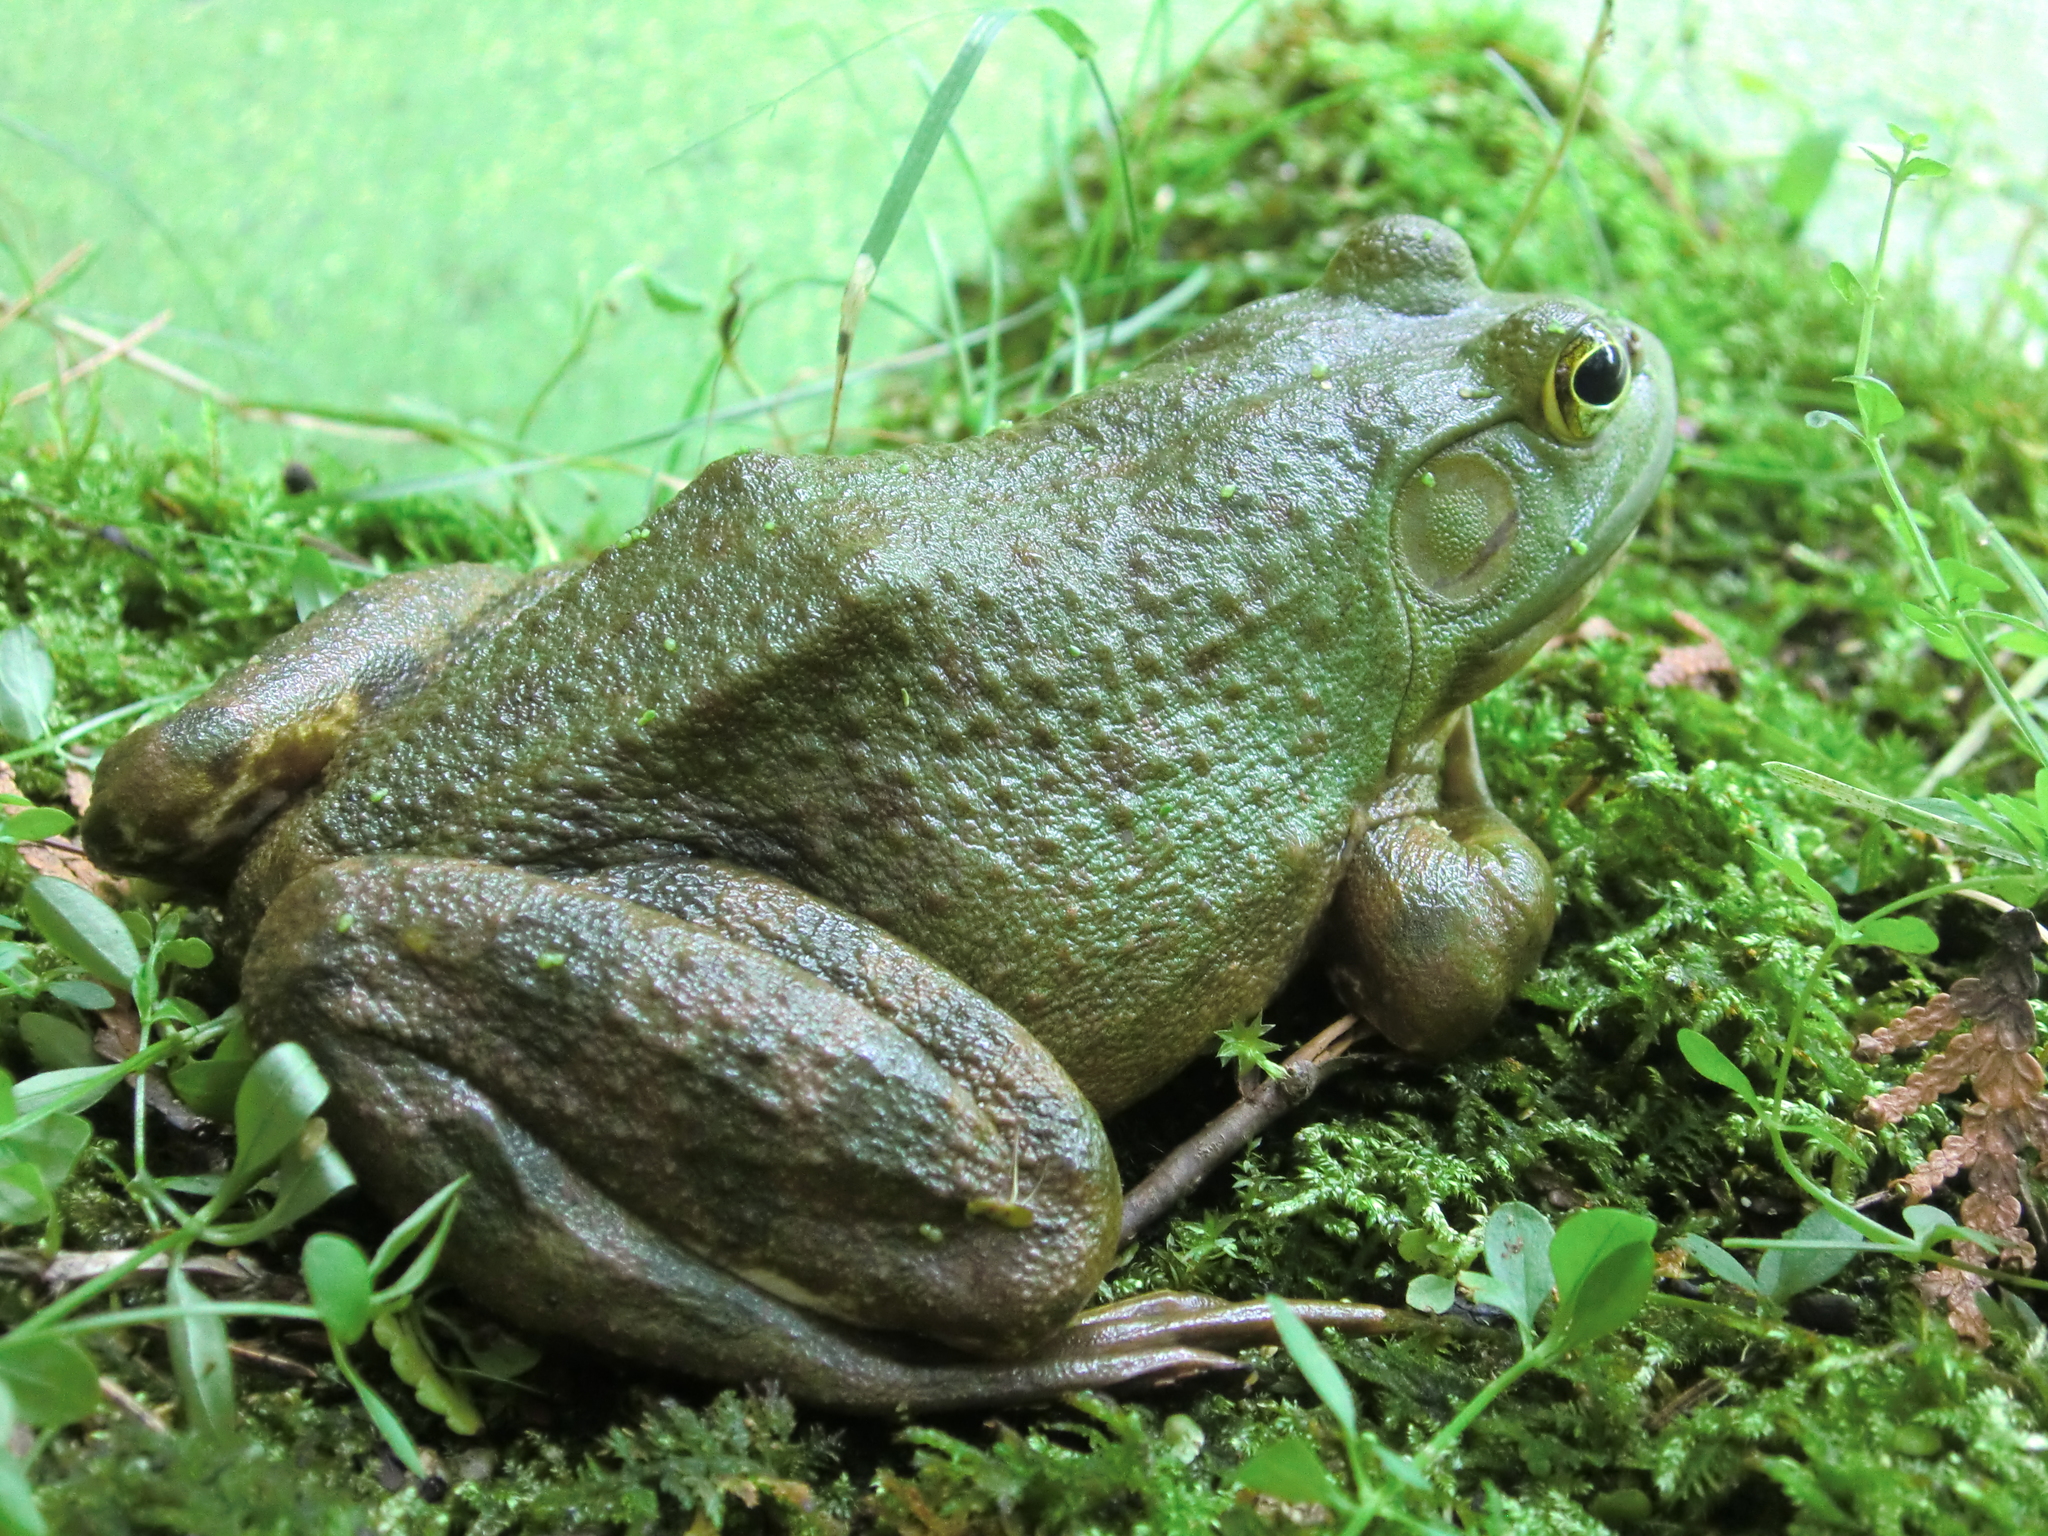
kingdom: Animalia
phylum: Chordata
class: Amphibia
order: Anura
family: Ranidae
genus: Lithobates
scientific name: Lithobates catesbeianus
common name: American bullfrog
